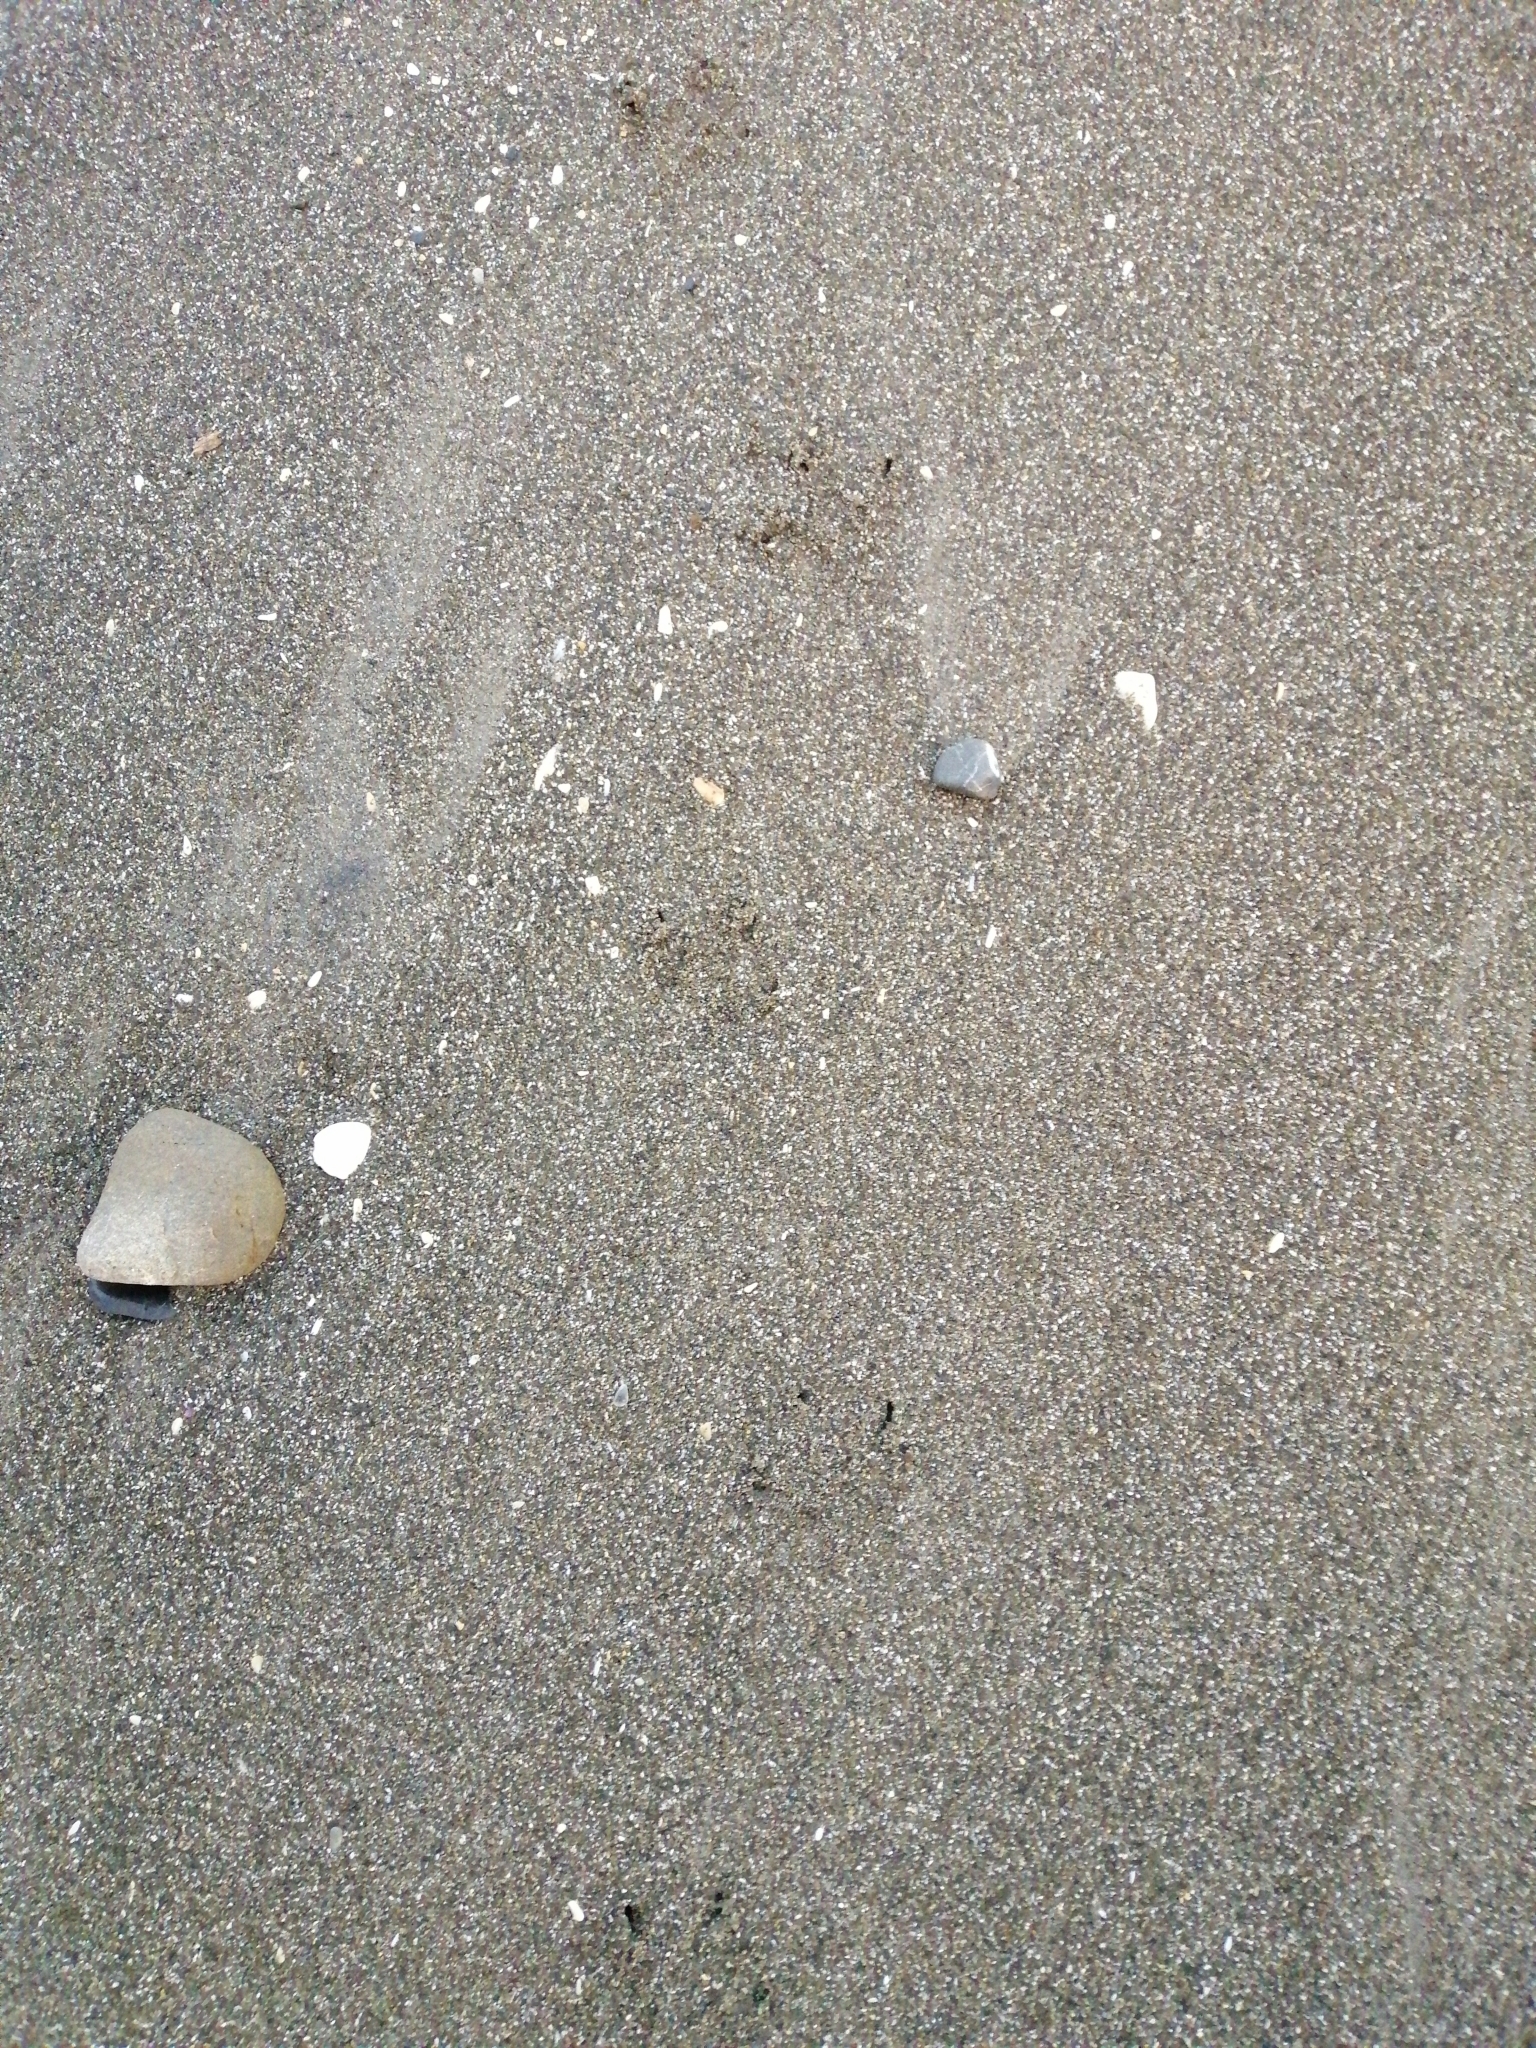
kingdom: Animalia
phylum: Chordata
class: Aves
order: Sphenisciformes
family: Spheniscidae
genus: Eudyptula
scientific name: Eudyptula minor
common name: Little penguin
